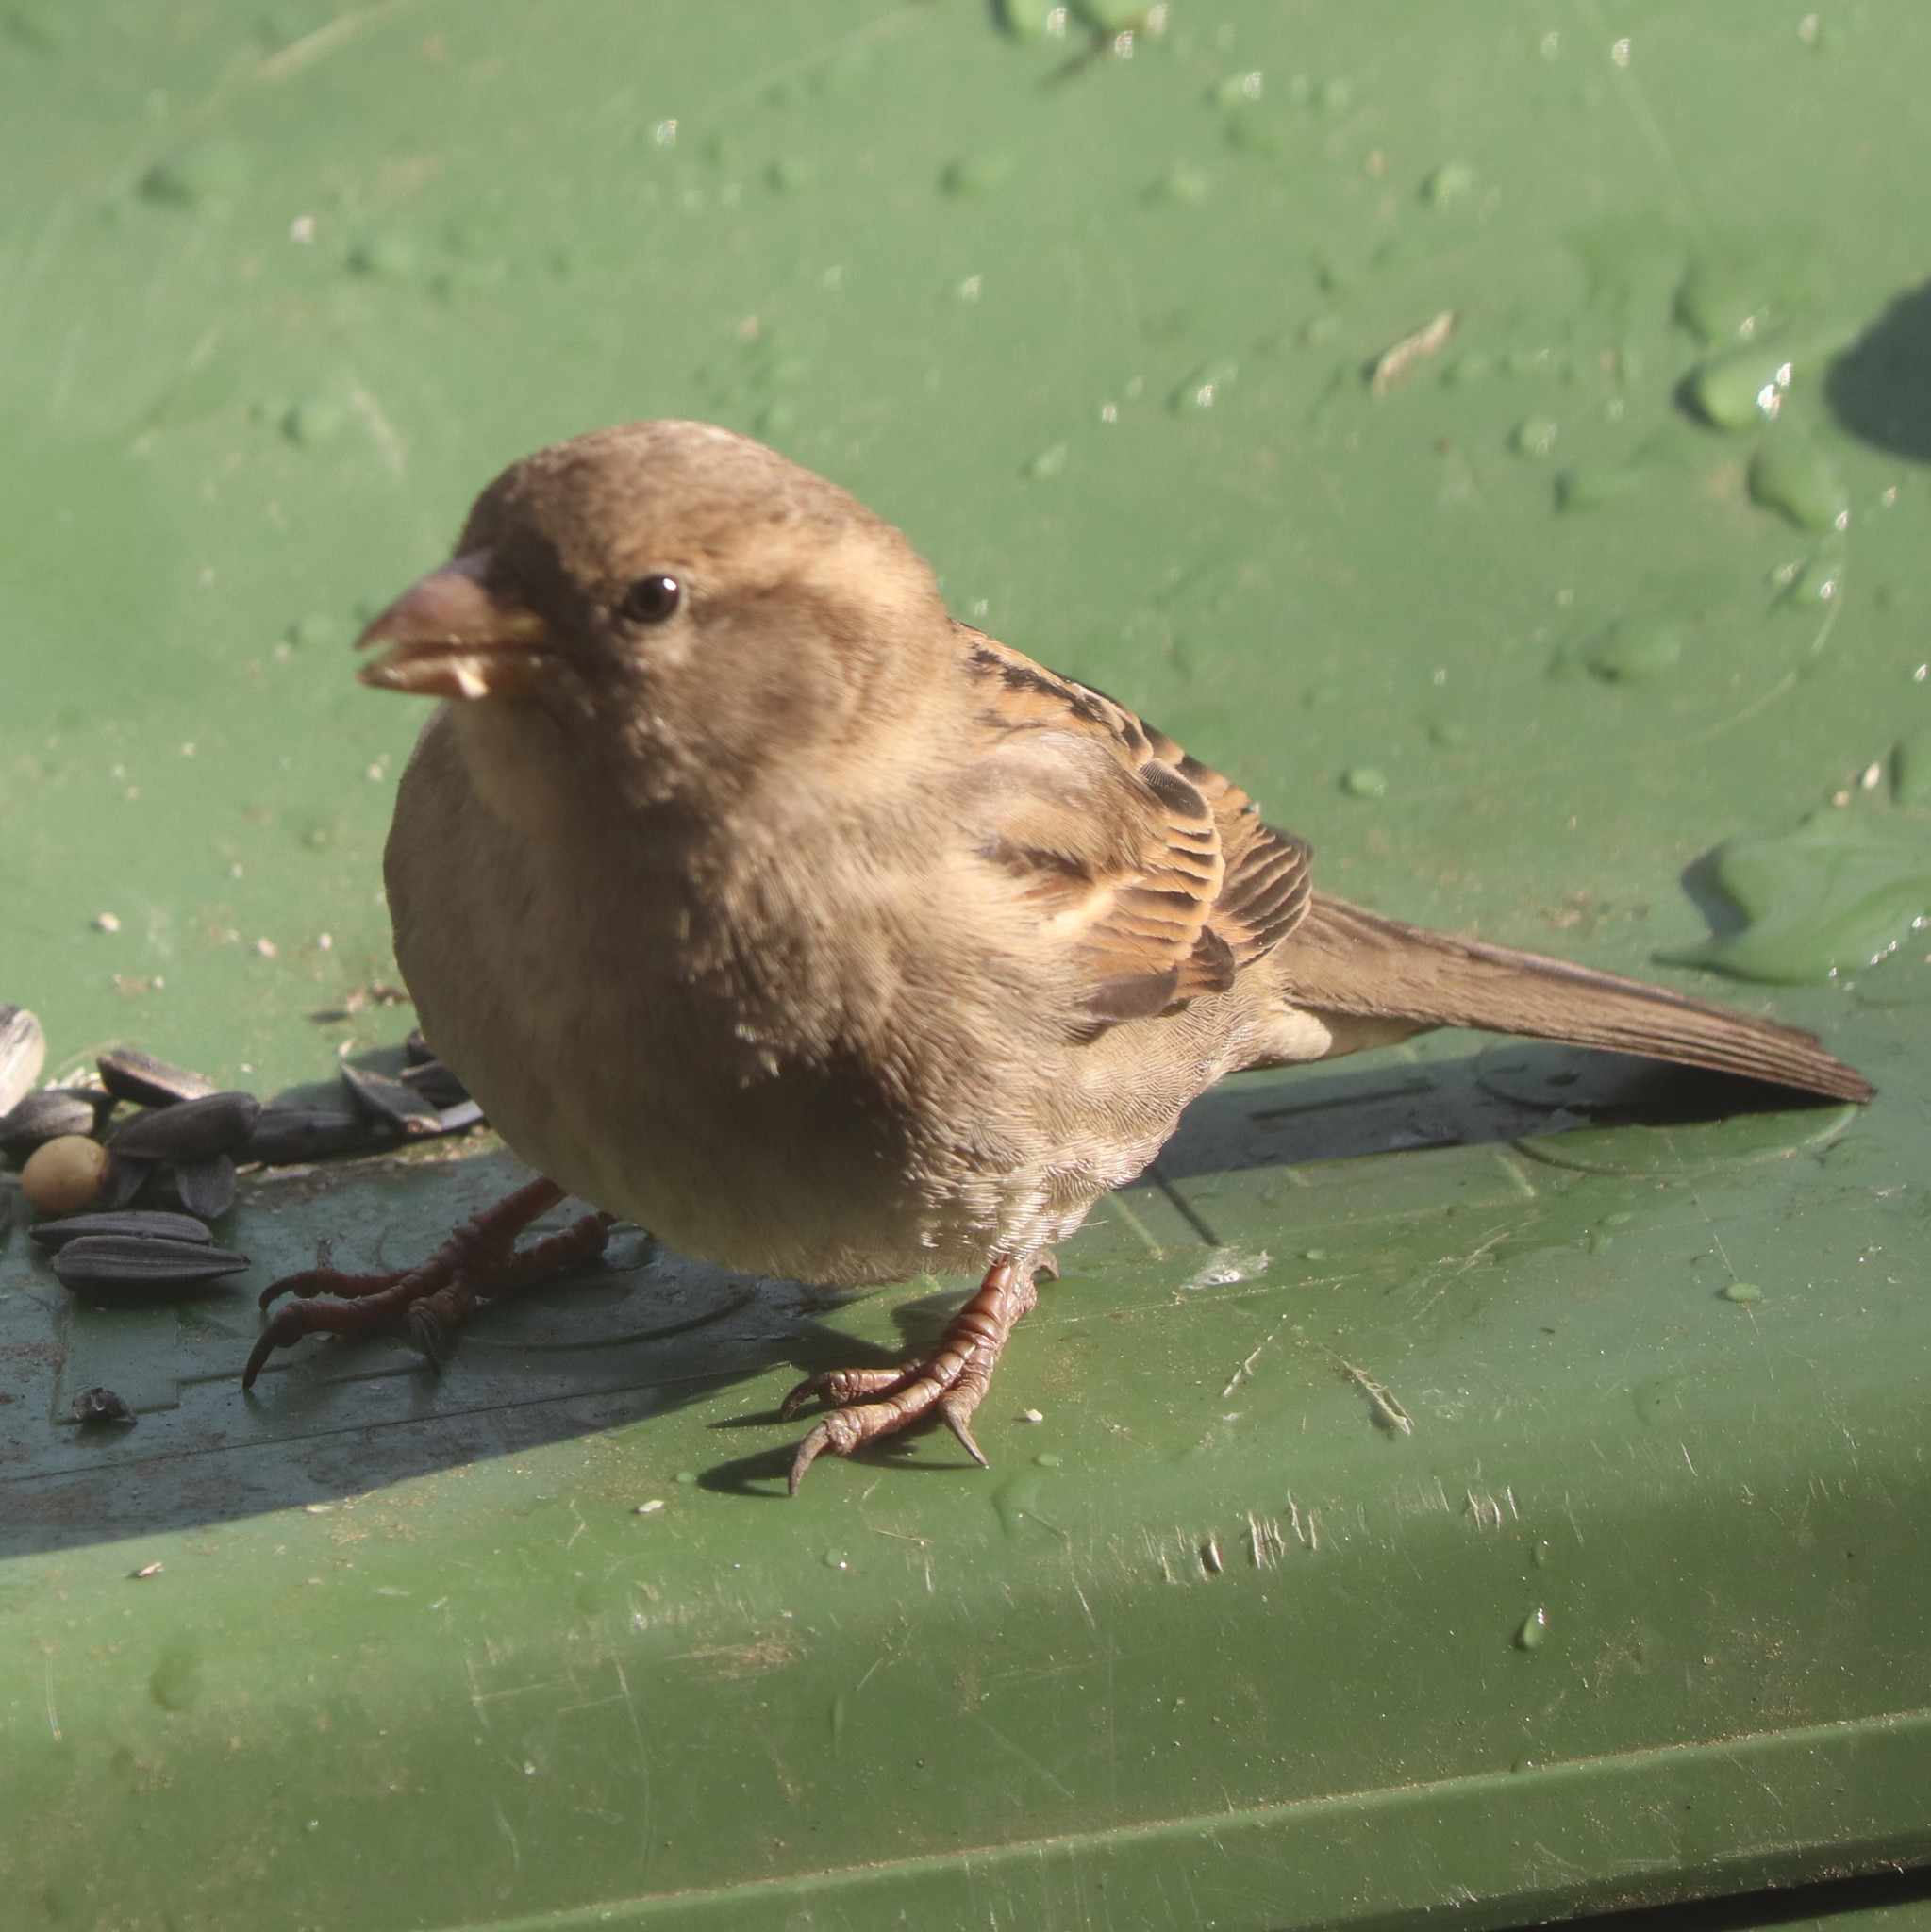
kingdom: Animalia
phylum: Chordata
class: Aves
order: Passeriformes
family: Passeridae
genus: Passer
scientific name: Passer domesticus
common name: House sparrow
